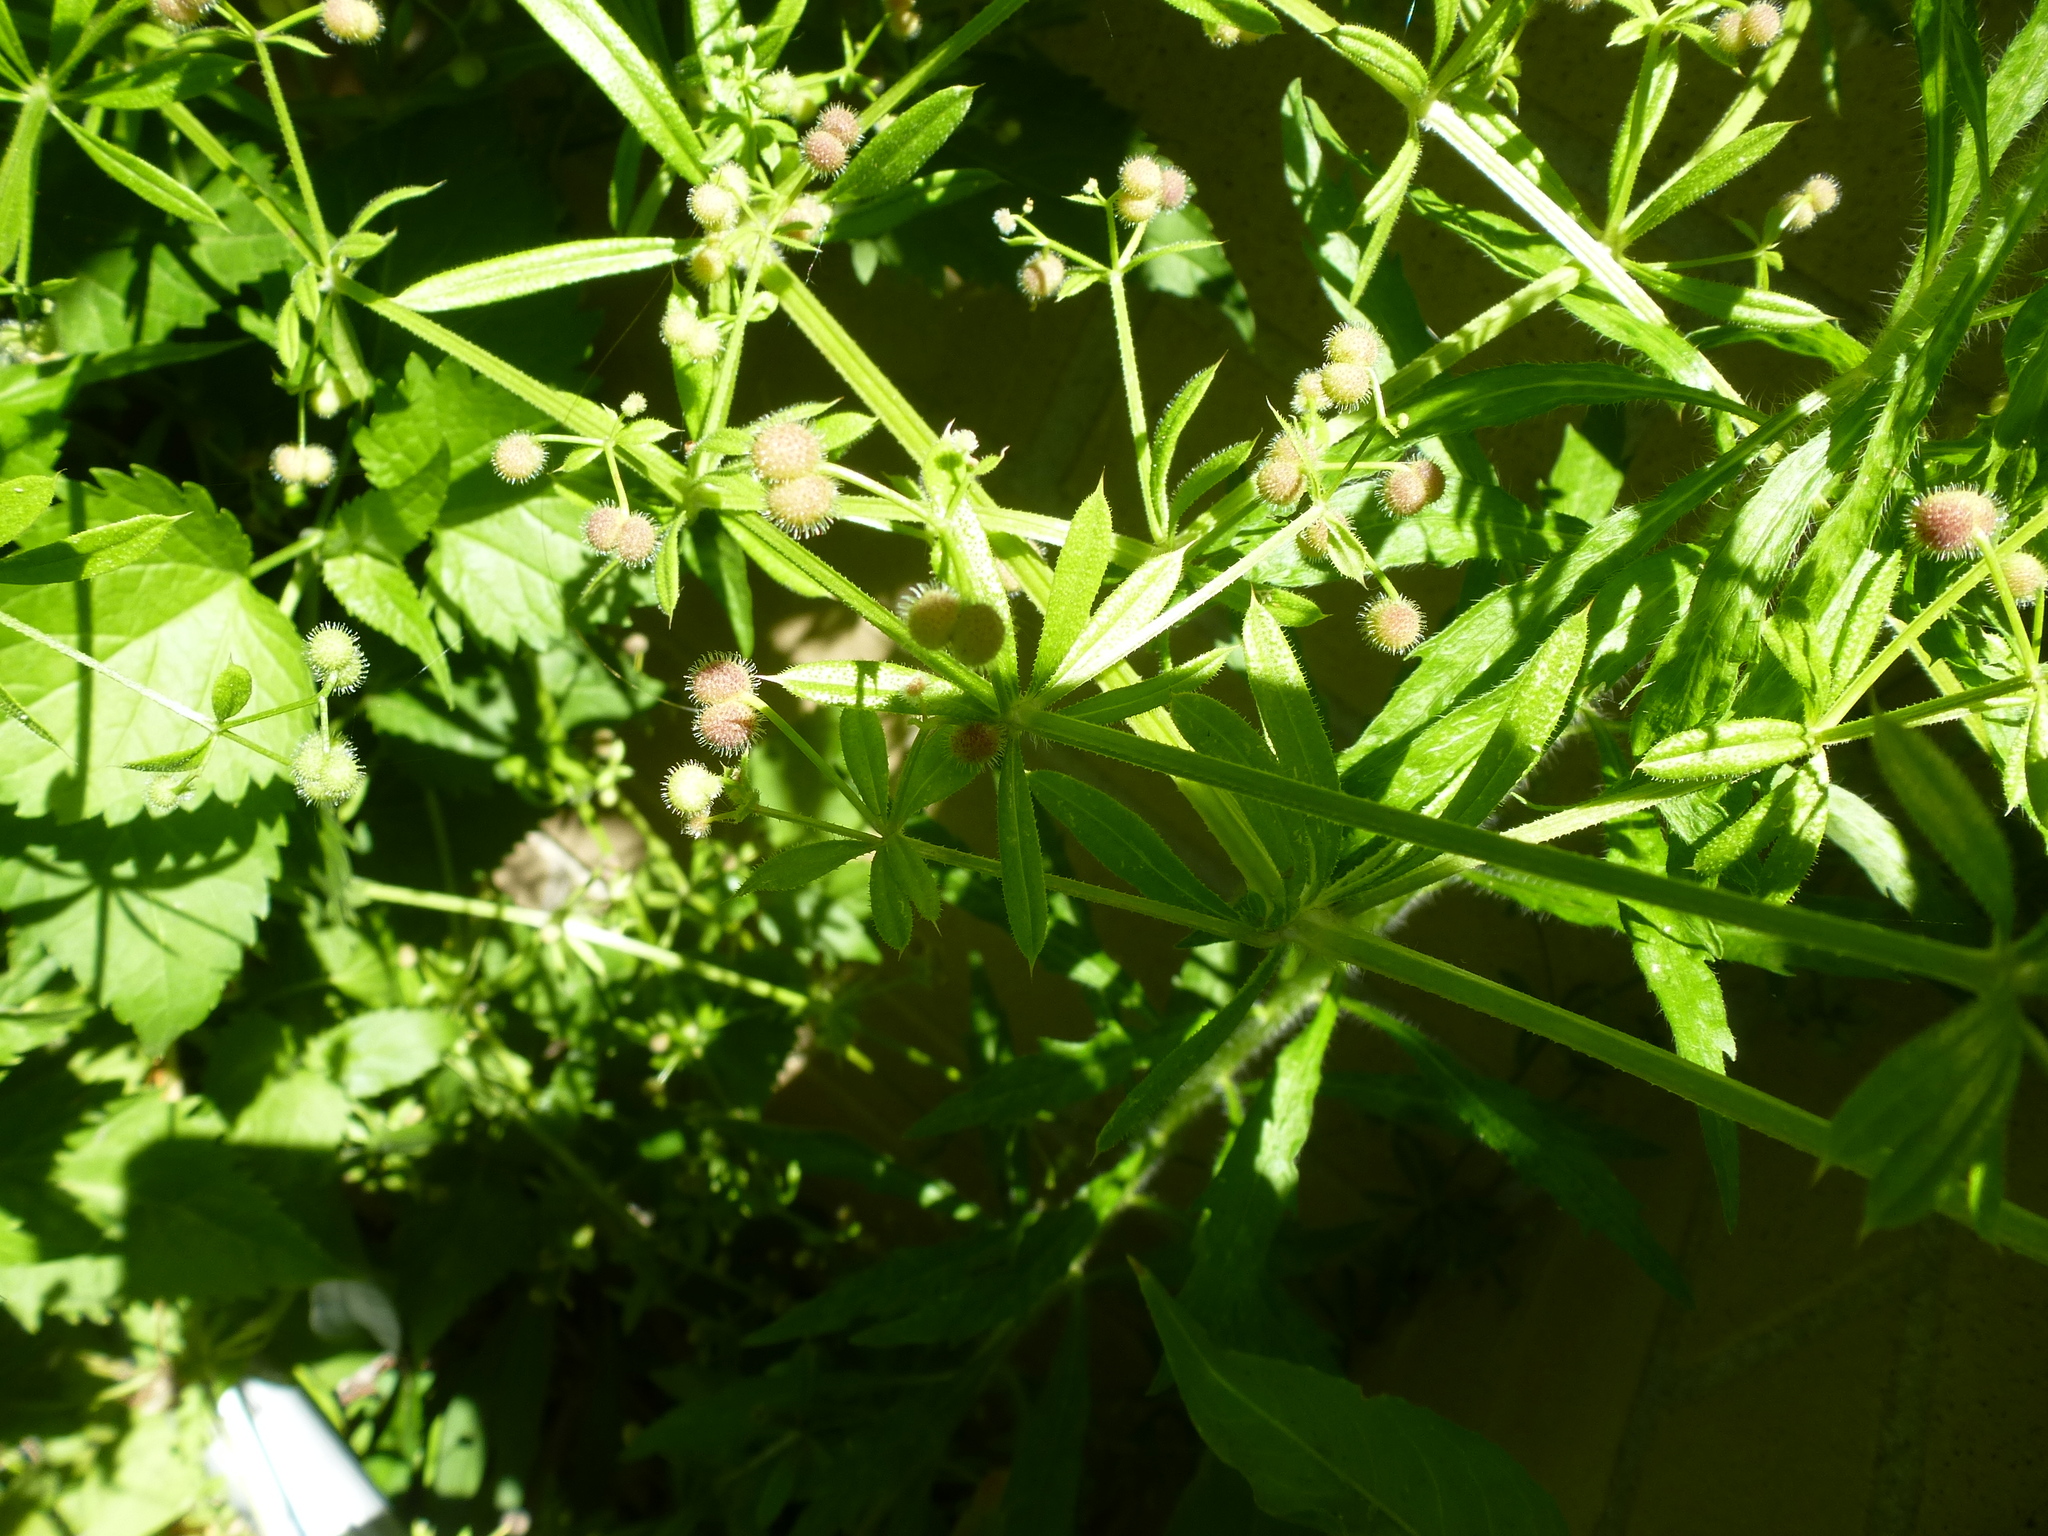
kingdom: Plantae
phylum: Tracheophyta
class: Magnoliopsida
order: Gentianales
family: Rubiaceae
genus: Galium
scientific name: Galium aparine
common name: Cleavers
